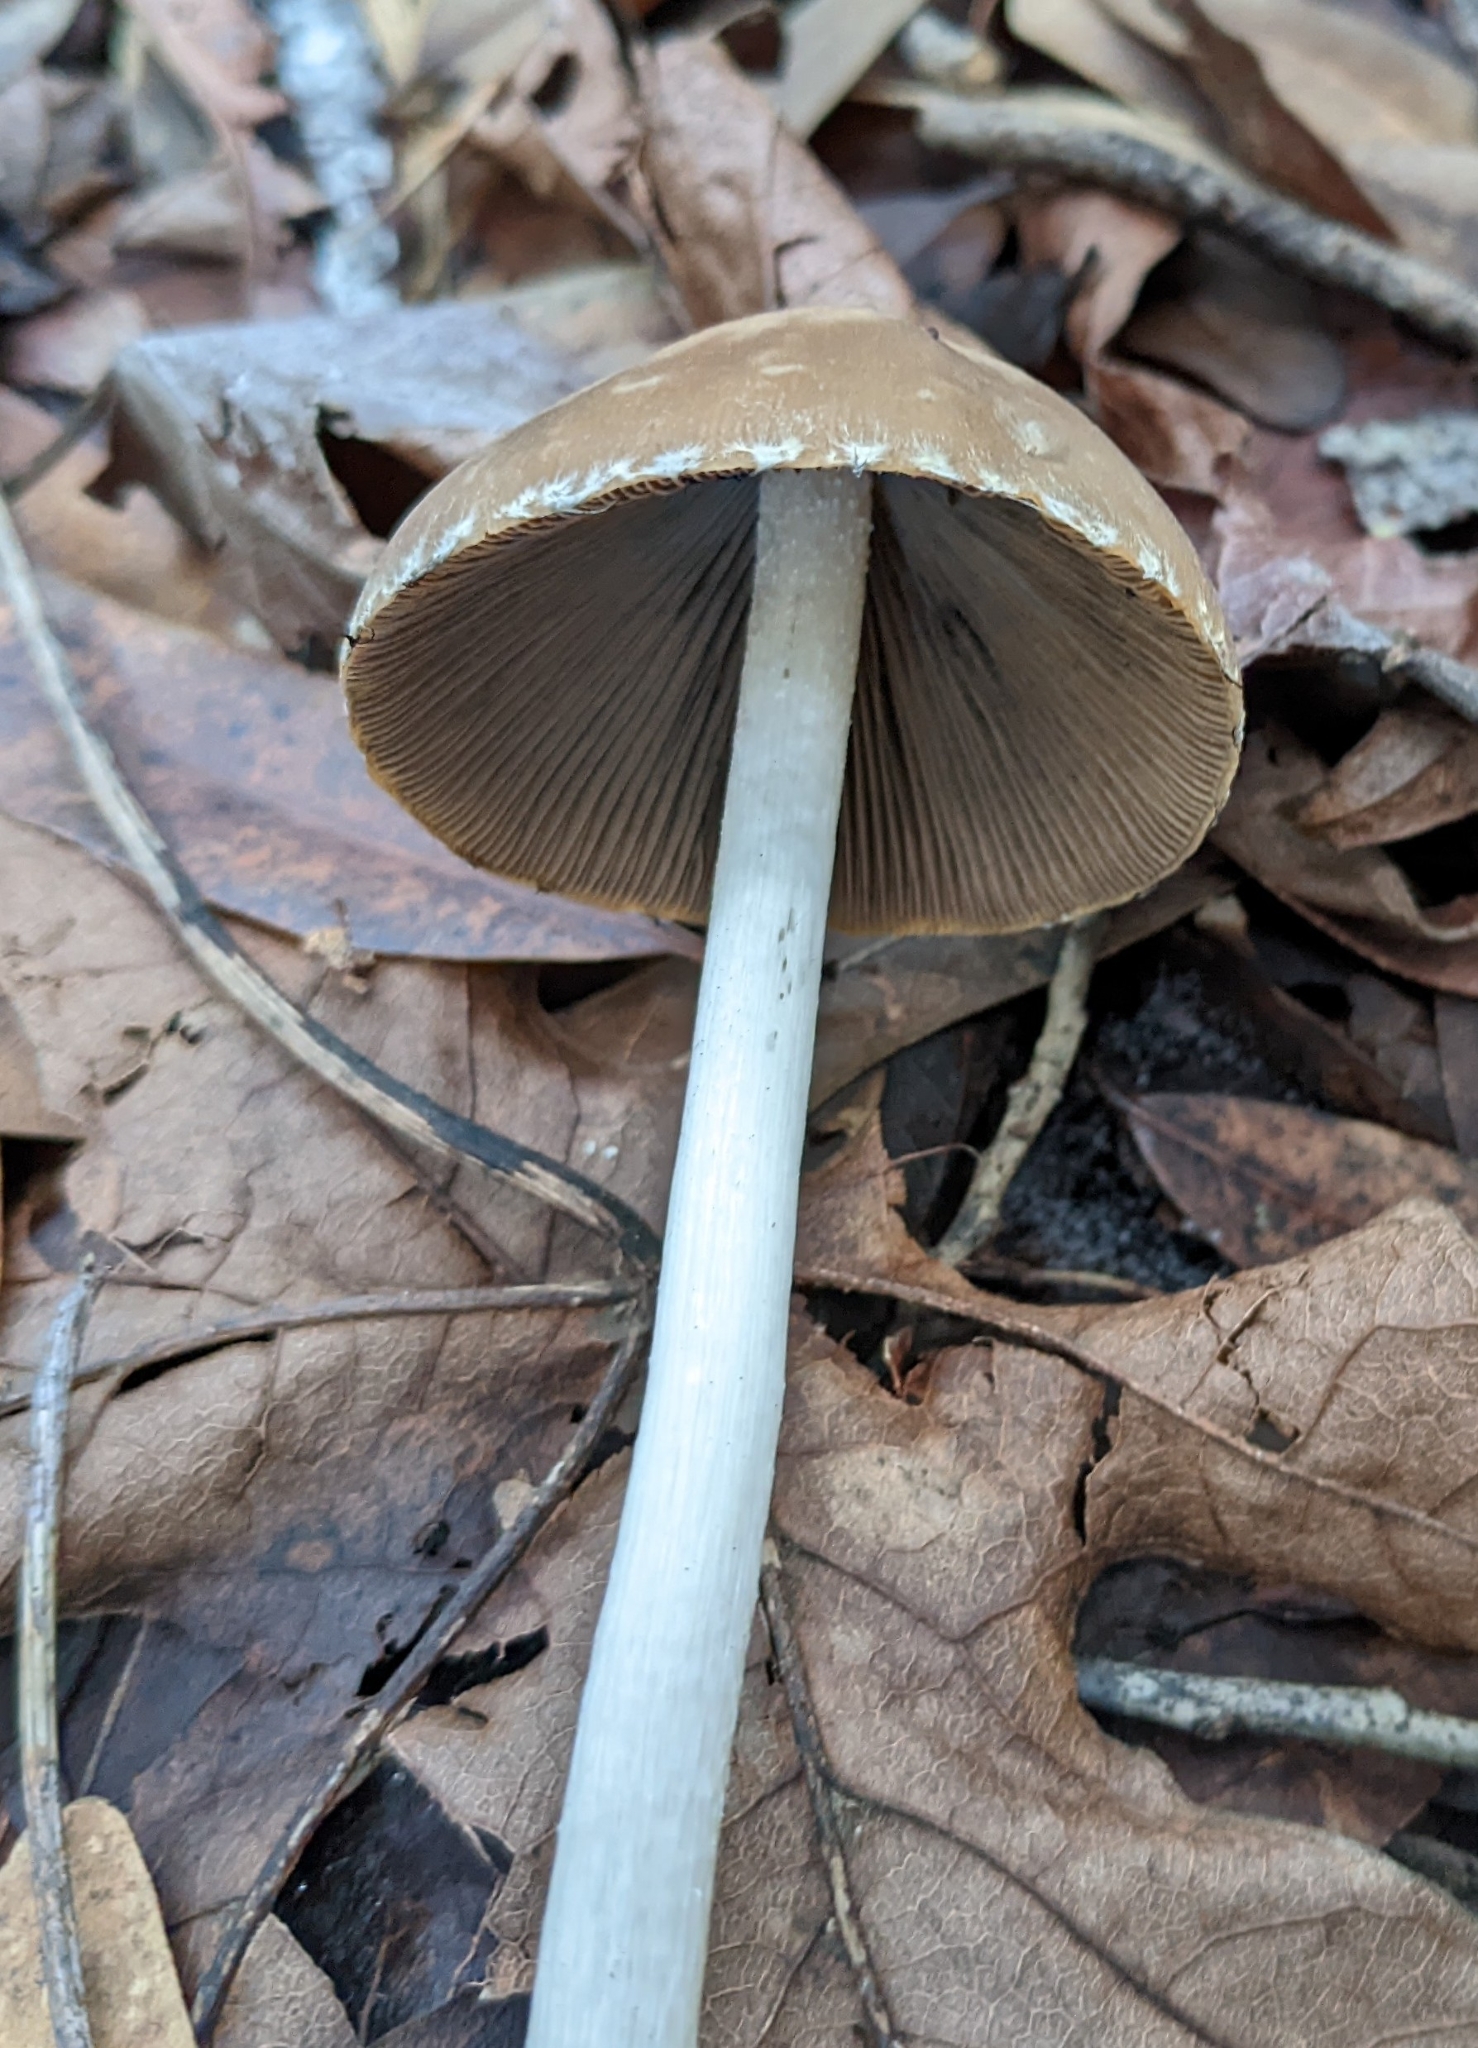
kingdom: Fungi
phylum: Basidiomycota
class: Agaricomycetes
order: Agaricales
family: Psathyrellaceae
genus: Psathyrella
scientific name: Psathyrella longipes
